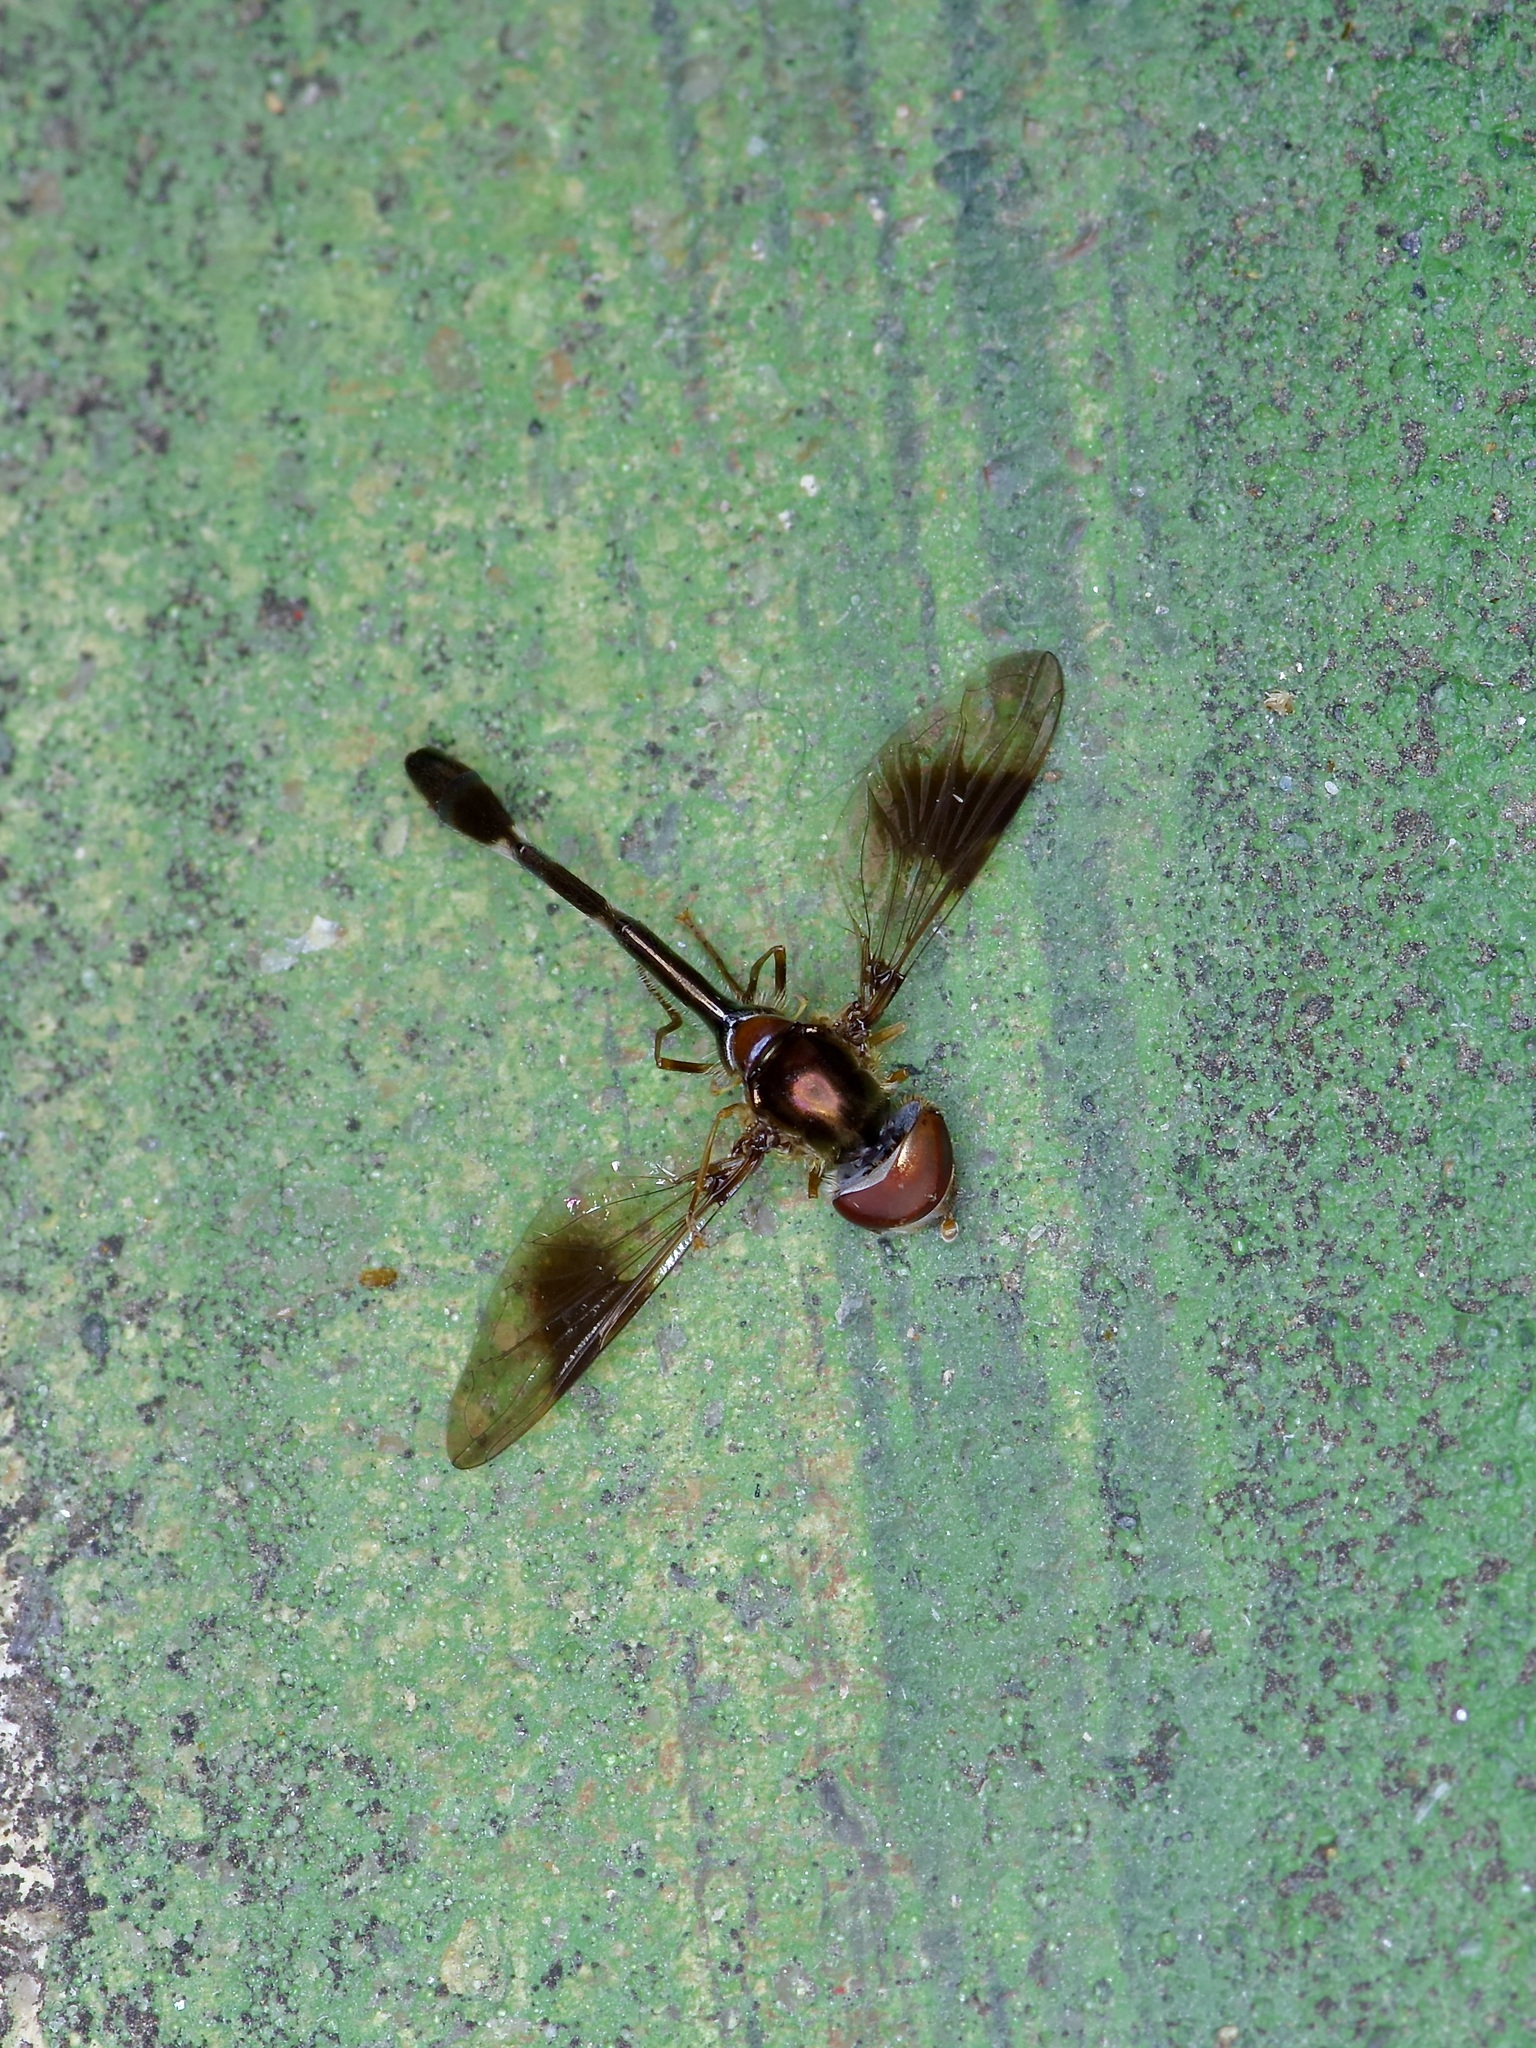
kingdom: Animalia
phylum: Arthropoda
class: Insecta
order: Diptera
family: Syrphidae
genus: Hypocritanus
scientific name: Hypocritanus fascipennis
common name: Eastern band-winged hover fly
